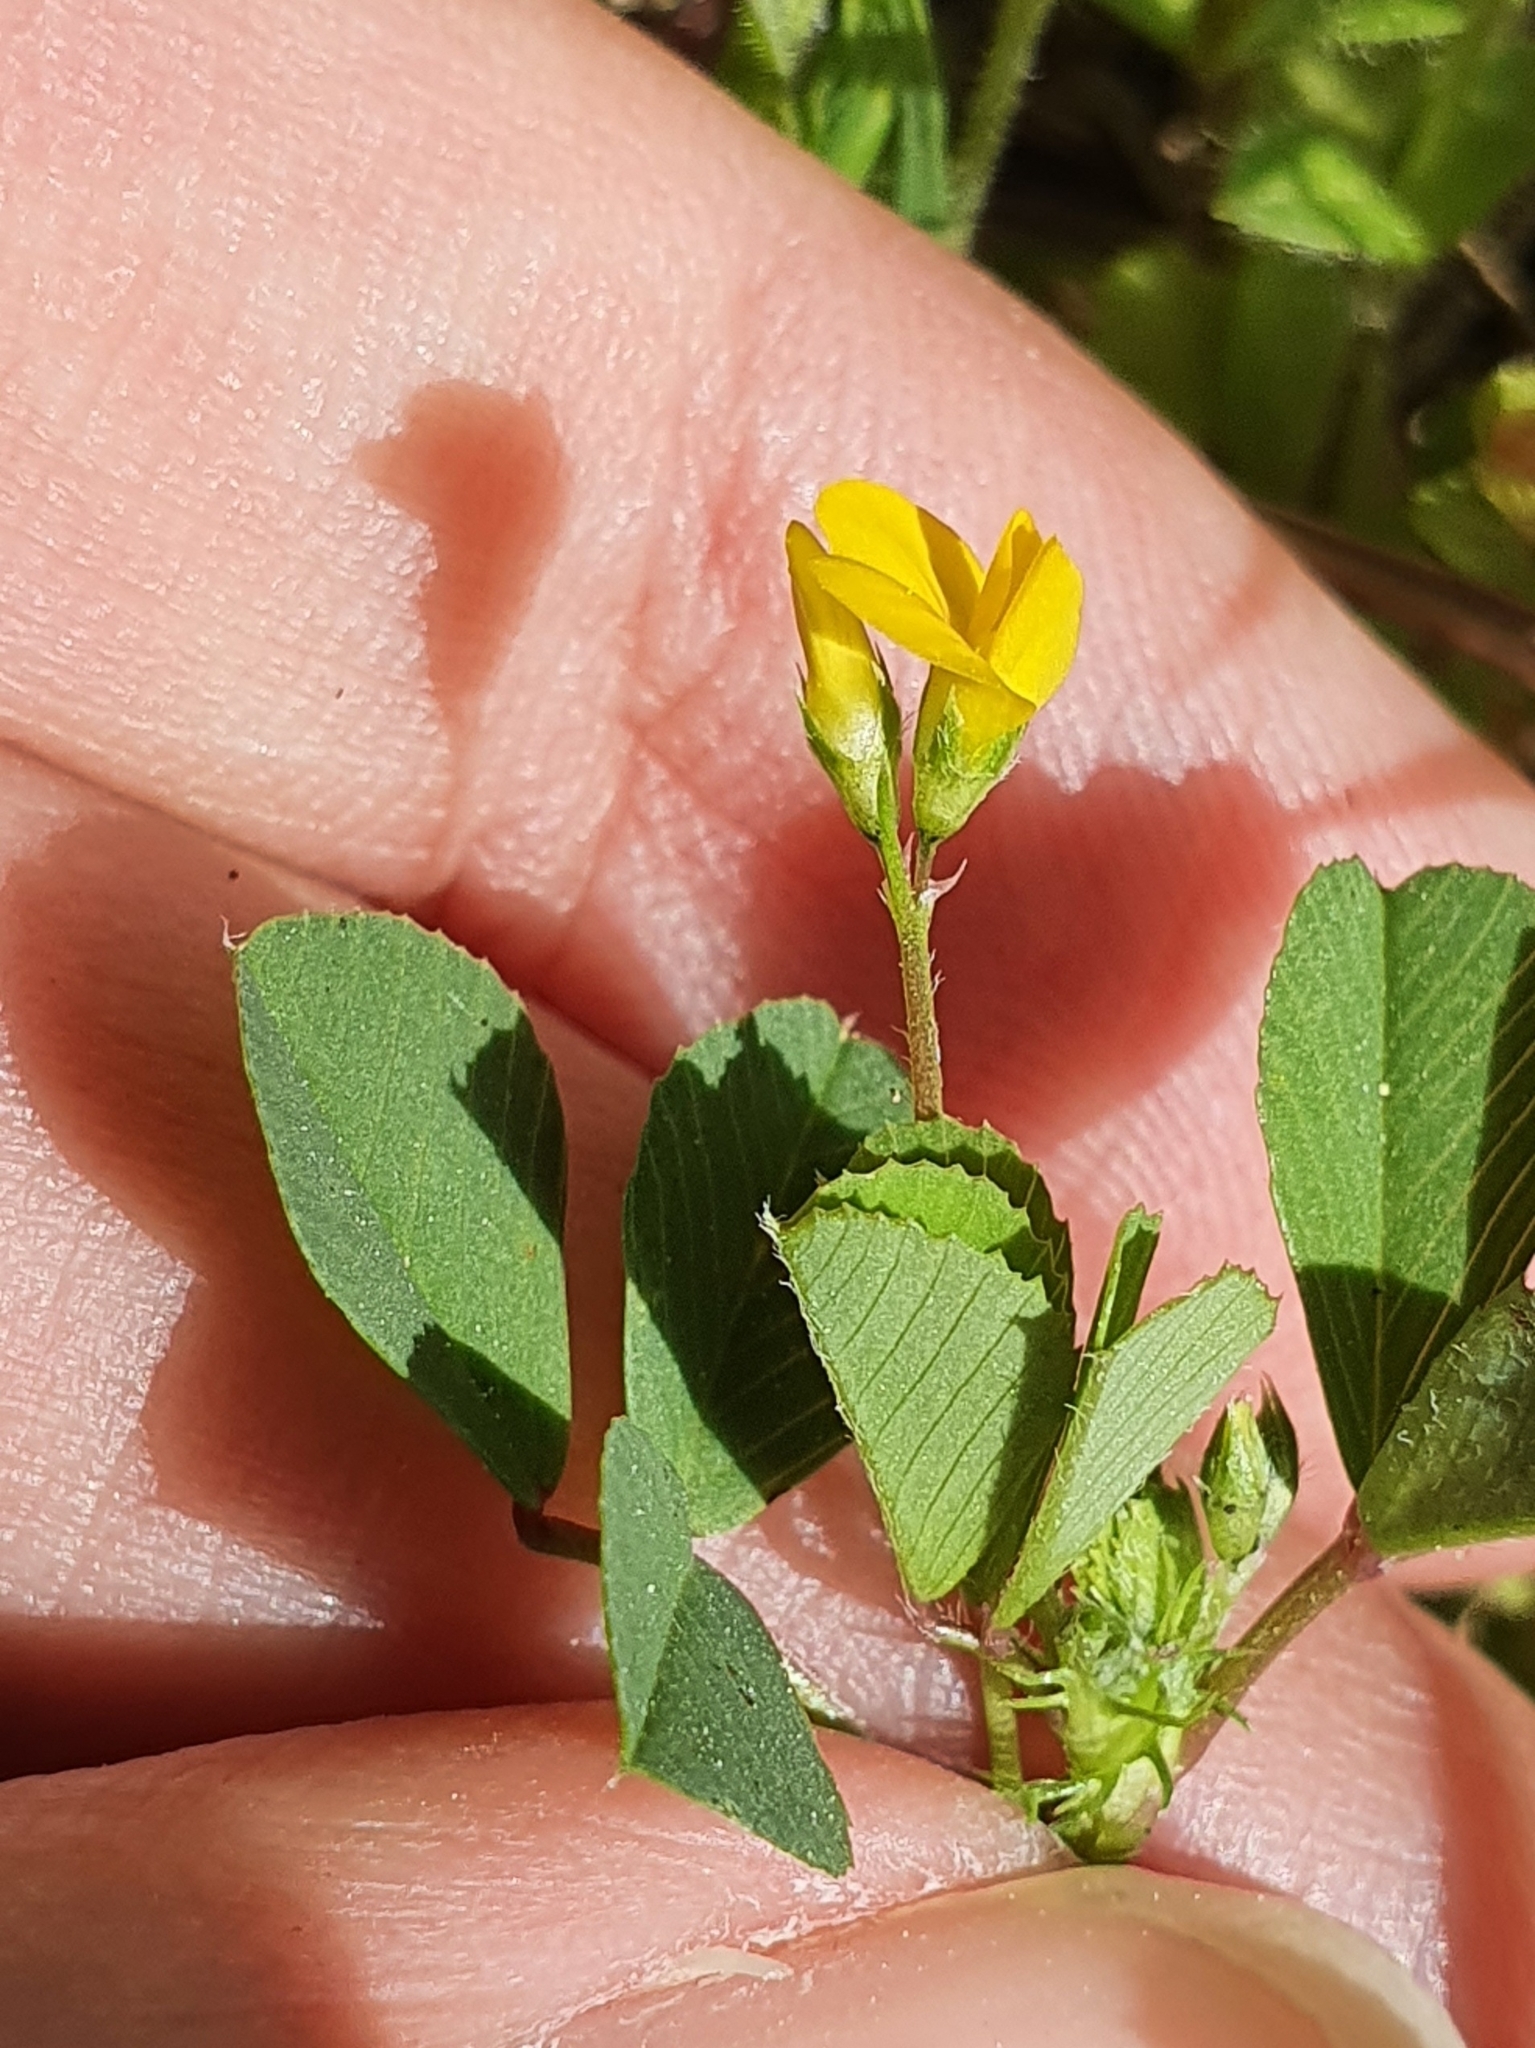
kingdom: Plantae
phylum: Tracheophyta
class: Magnoliopsida
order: Fabales
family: Fabaceae
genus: Medicago
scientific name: Medicago murex
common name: Murex
